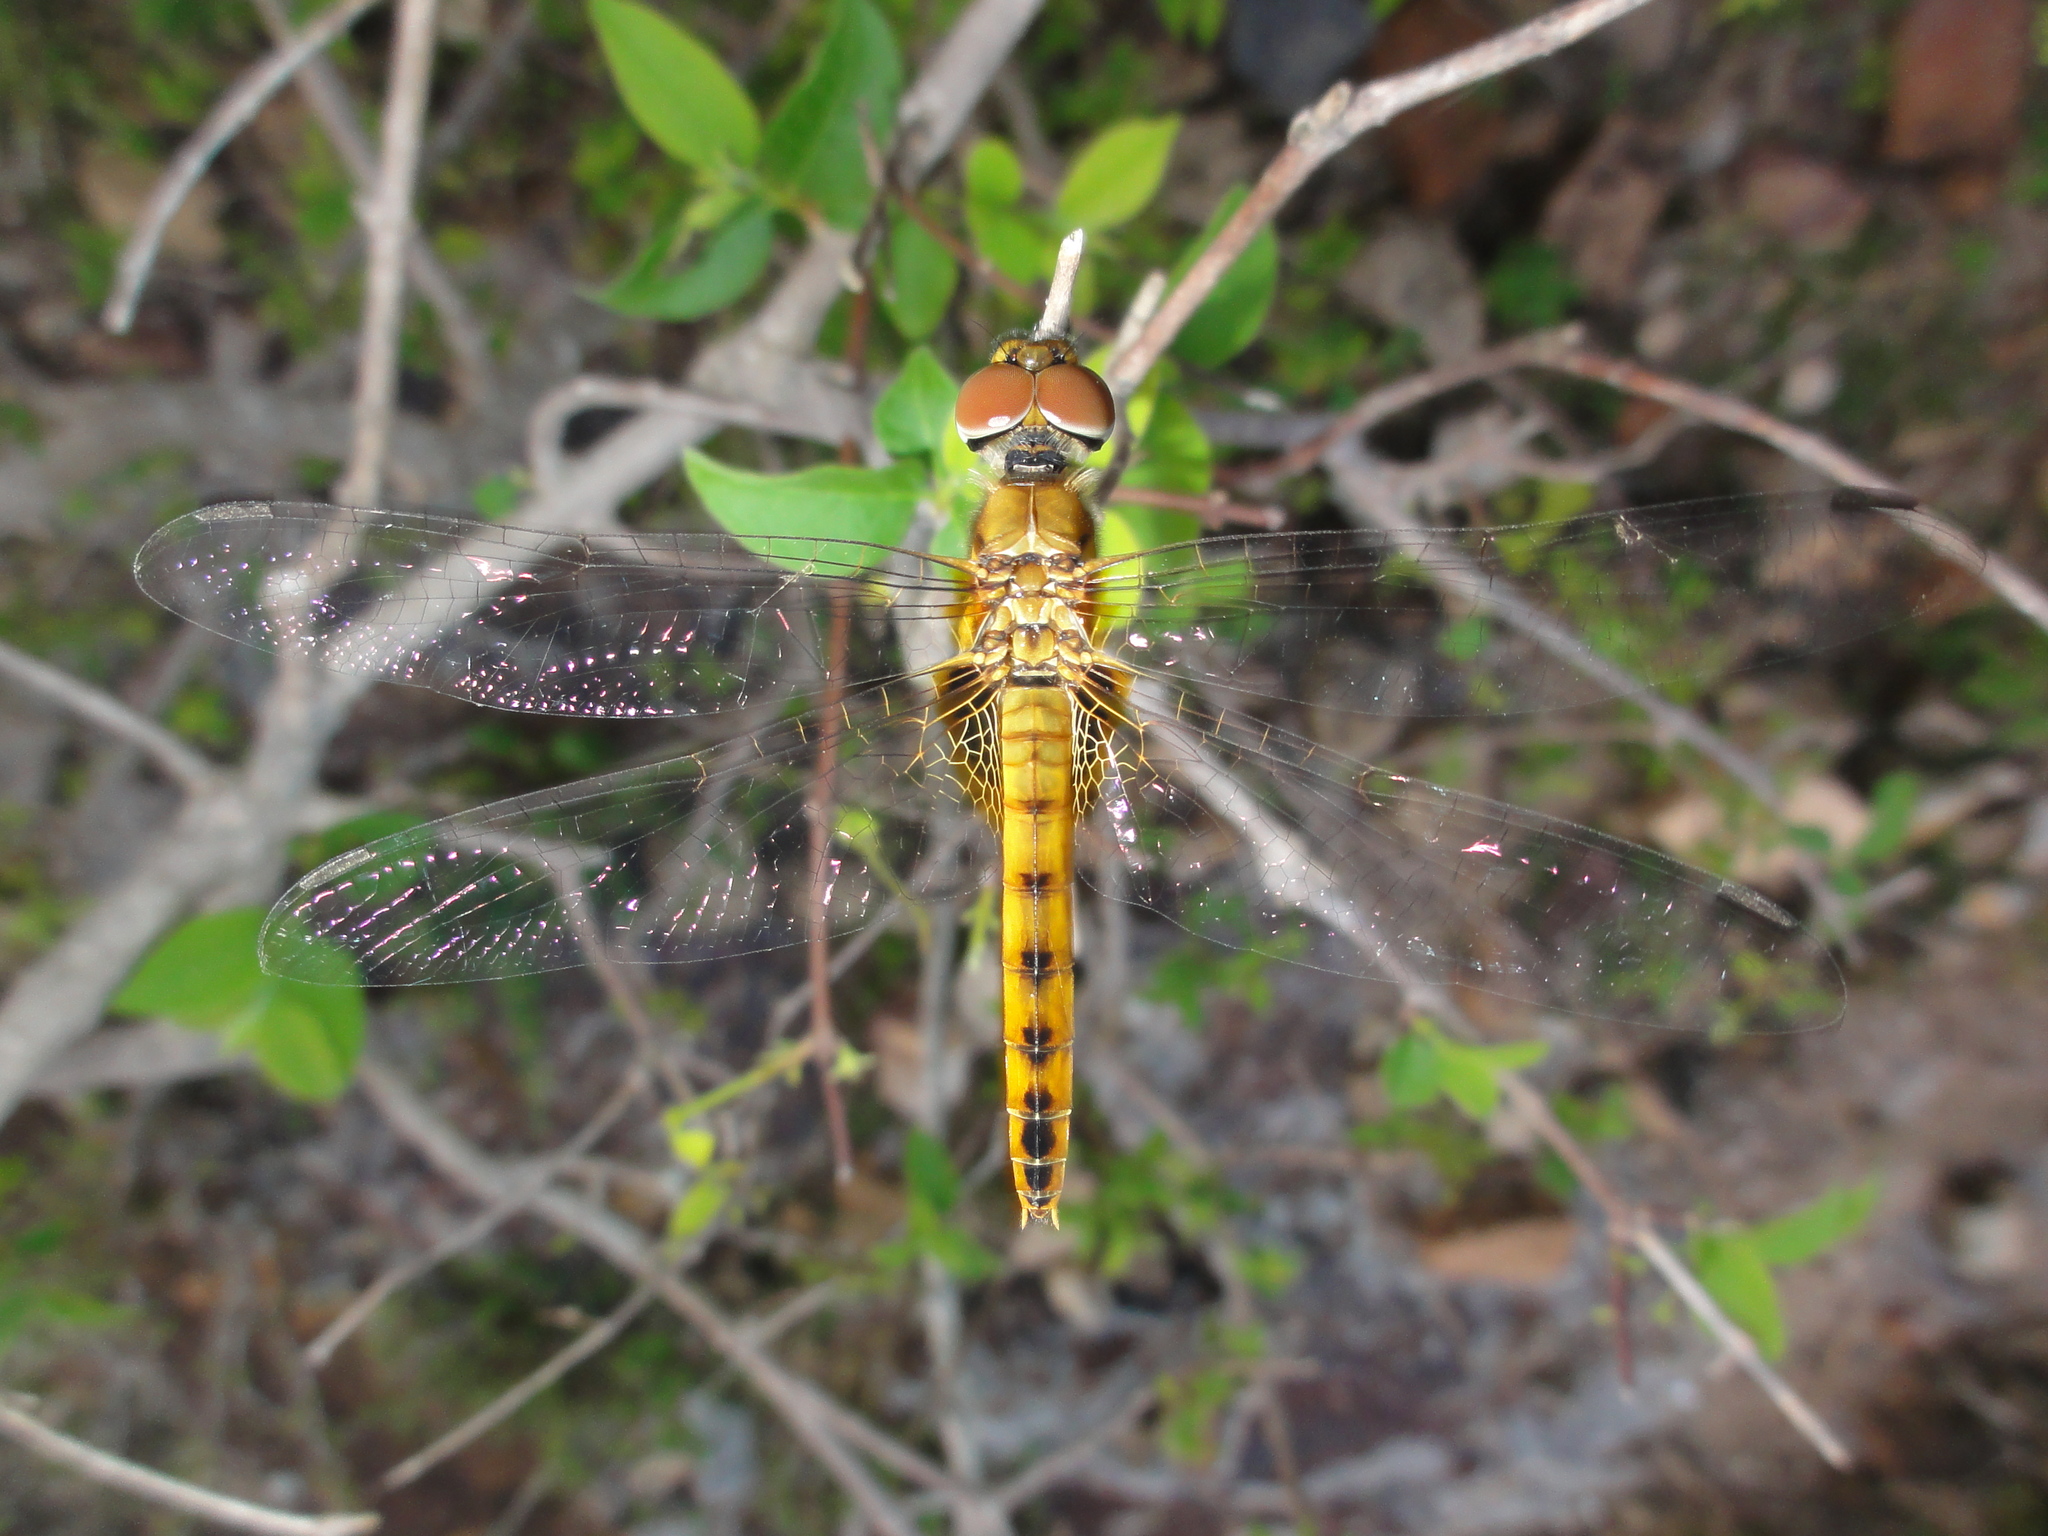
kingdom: Animalia
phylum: Arthropoda
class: Insecta
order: Odonata
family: Libellulidae
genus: Aethriamanta
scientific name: Aethriamanta aethra
